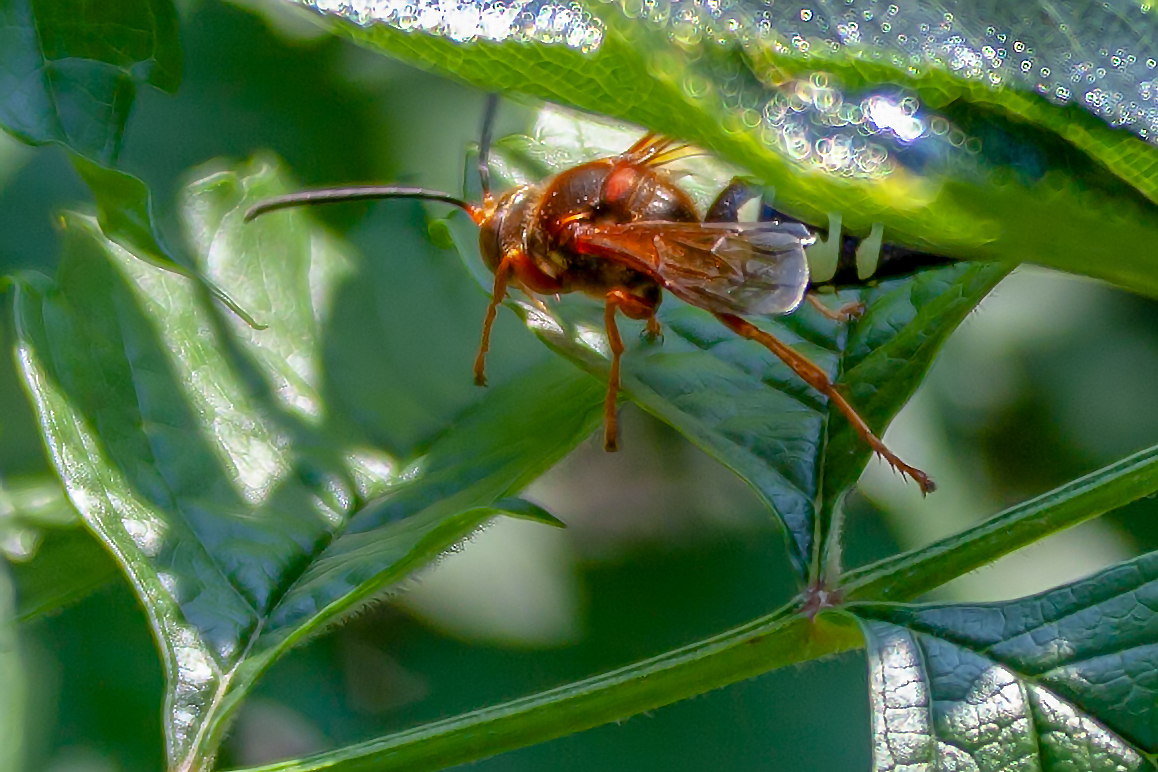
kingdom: Animalia
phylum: Arthropoda
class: Insecta
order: Hymenoptera
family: Crabronidae
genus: Sphecius
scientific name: Sphecius speciosus
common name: Cicada killer
